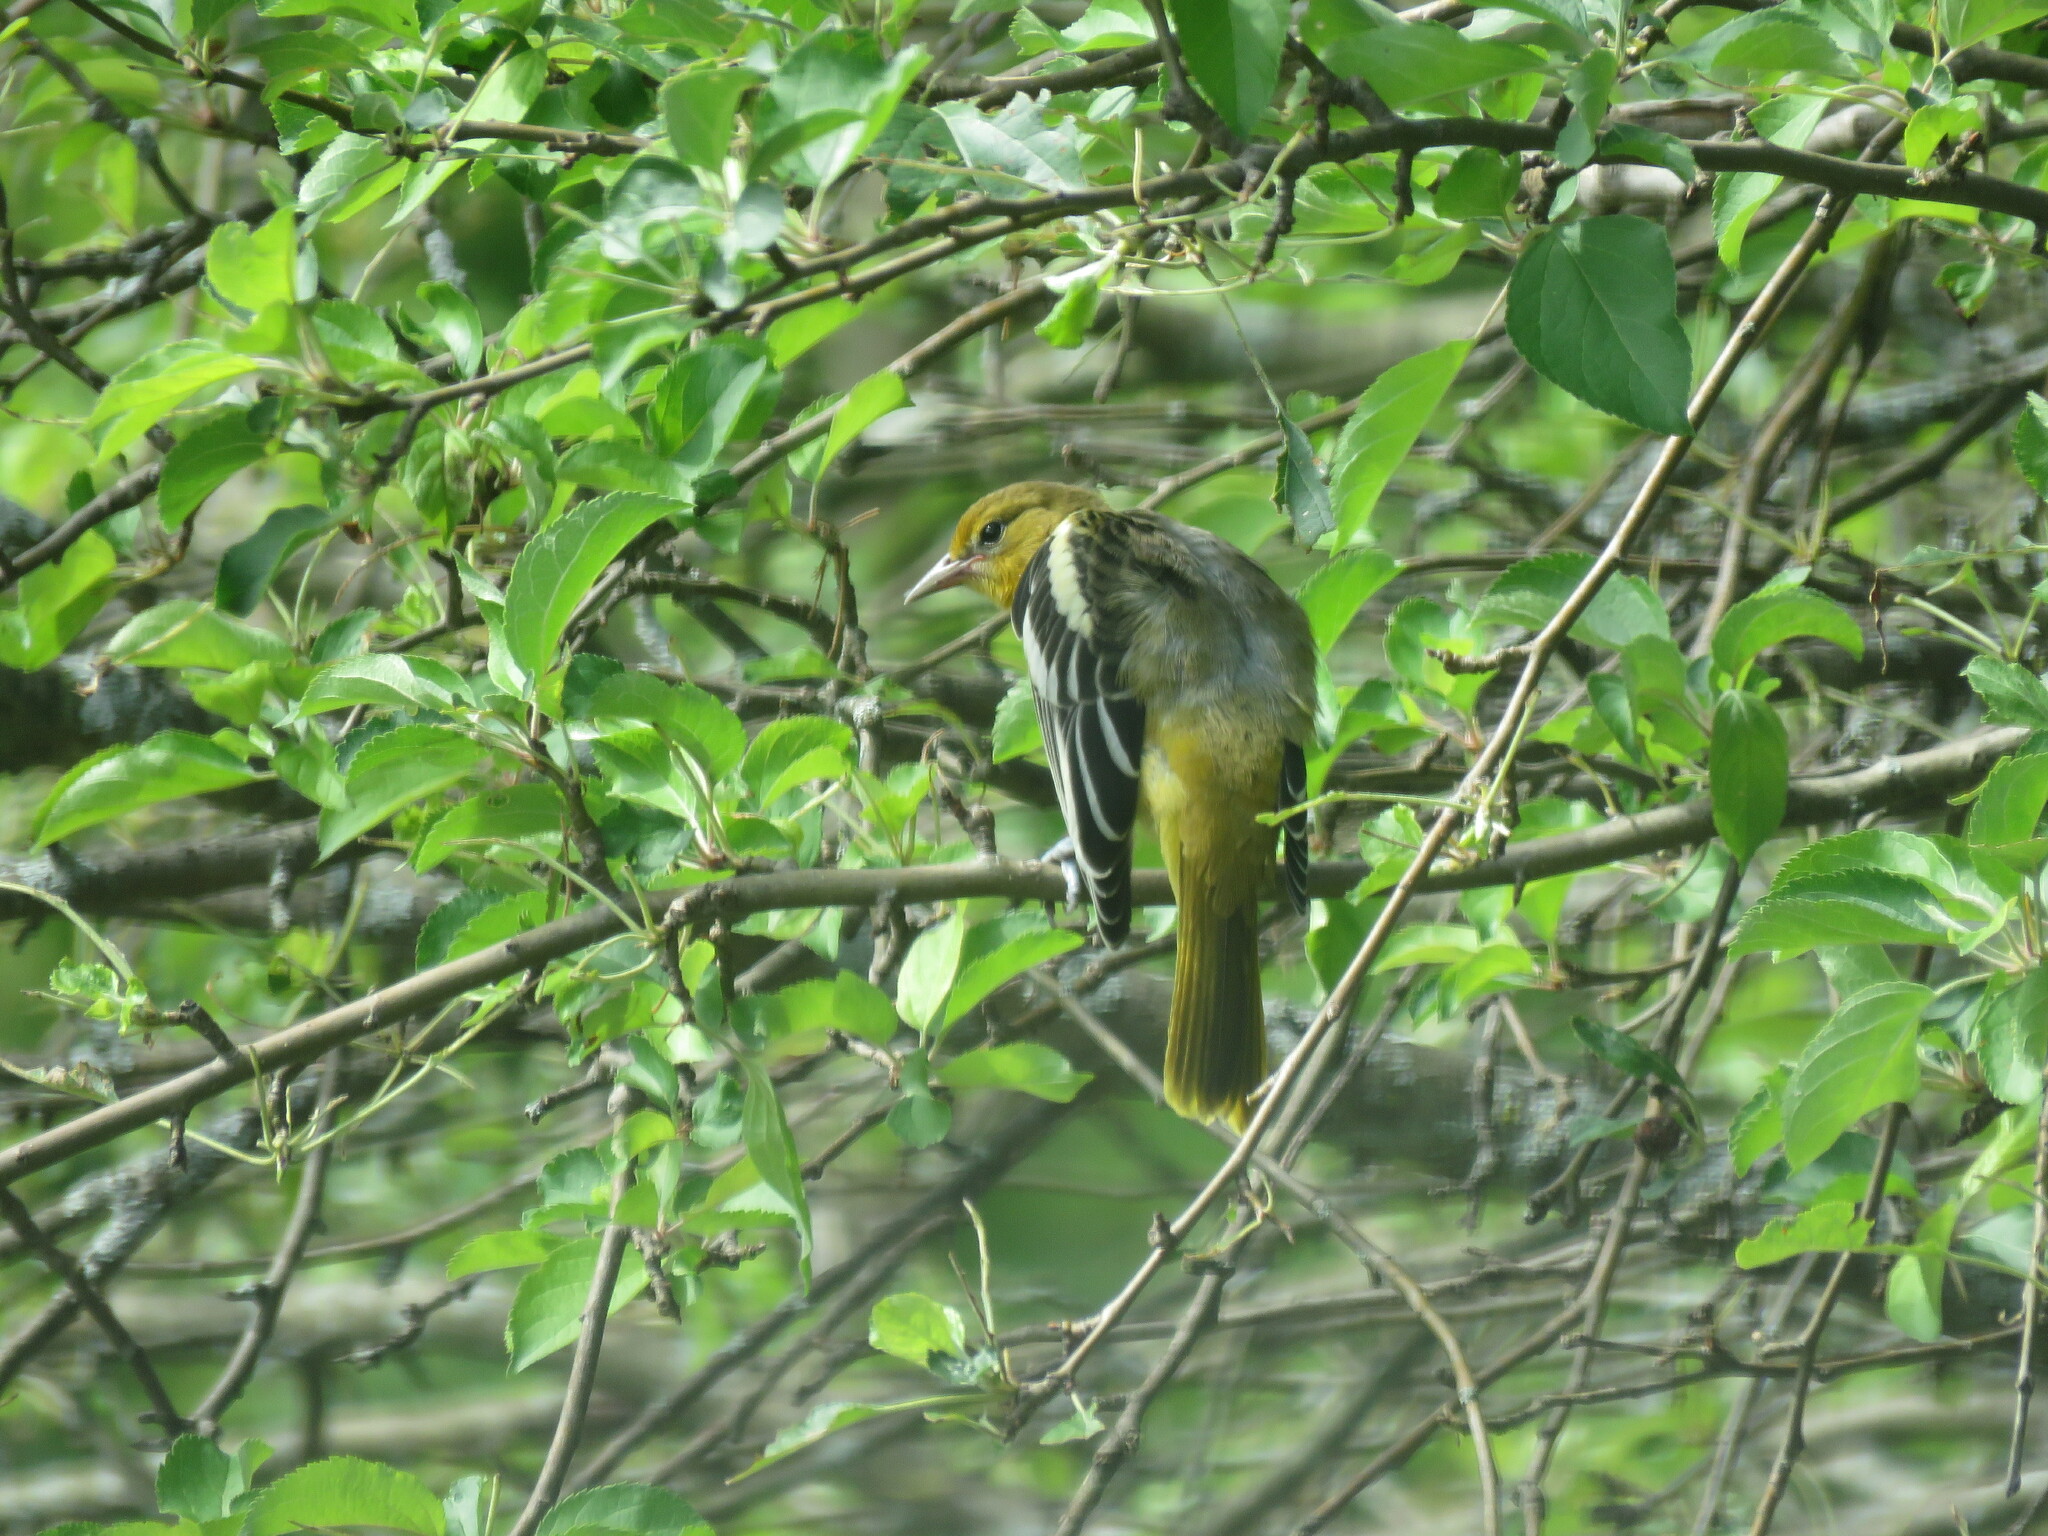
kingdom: Animalia
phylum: Chordata
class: Aves
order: Passeriformes
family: Icteridae
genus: Icterus
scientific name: Icterus galbula
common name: Baltimore oriole
